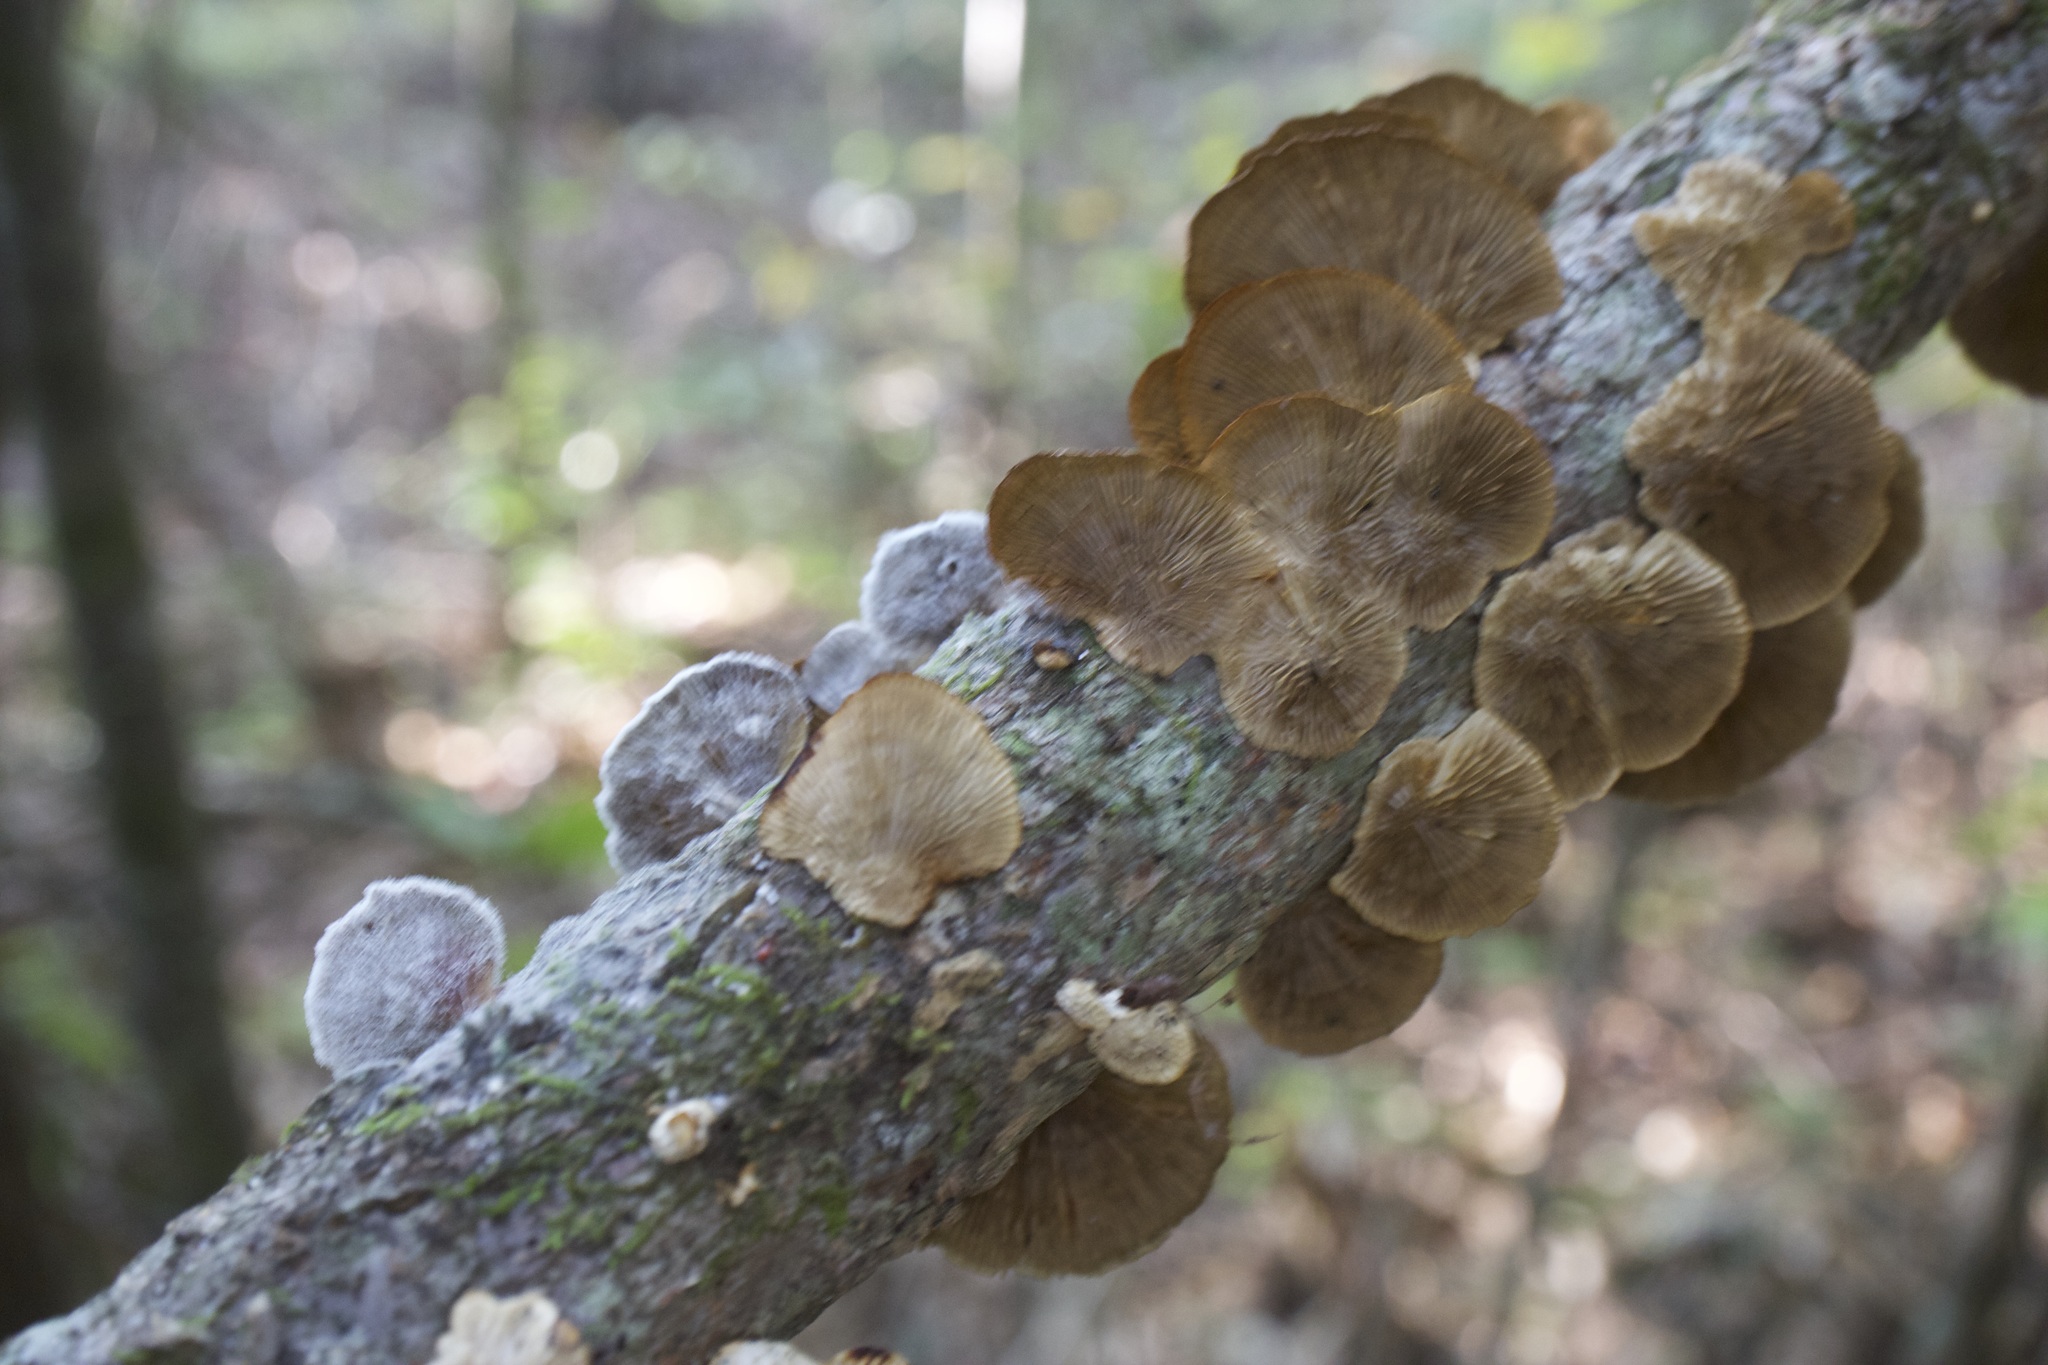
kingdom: Fungi
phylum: Basidiomycota
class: Agaricomycetes
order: Polyporales
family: Polyporaceae
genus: Daedaleopsis
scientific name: Daedaleopsis confragosa
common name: Blushing bracket
